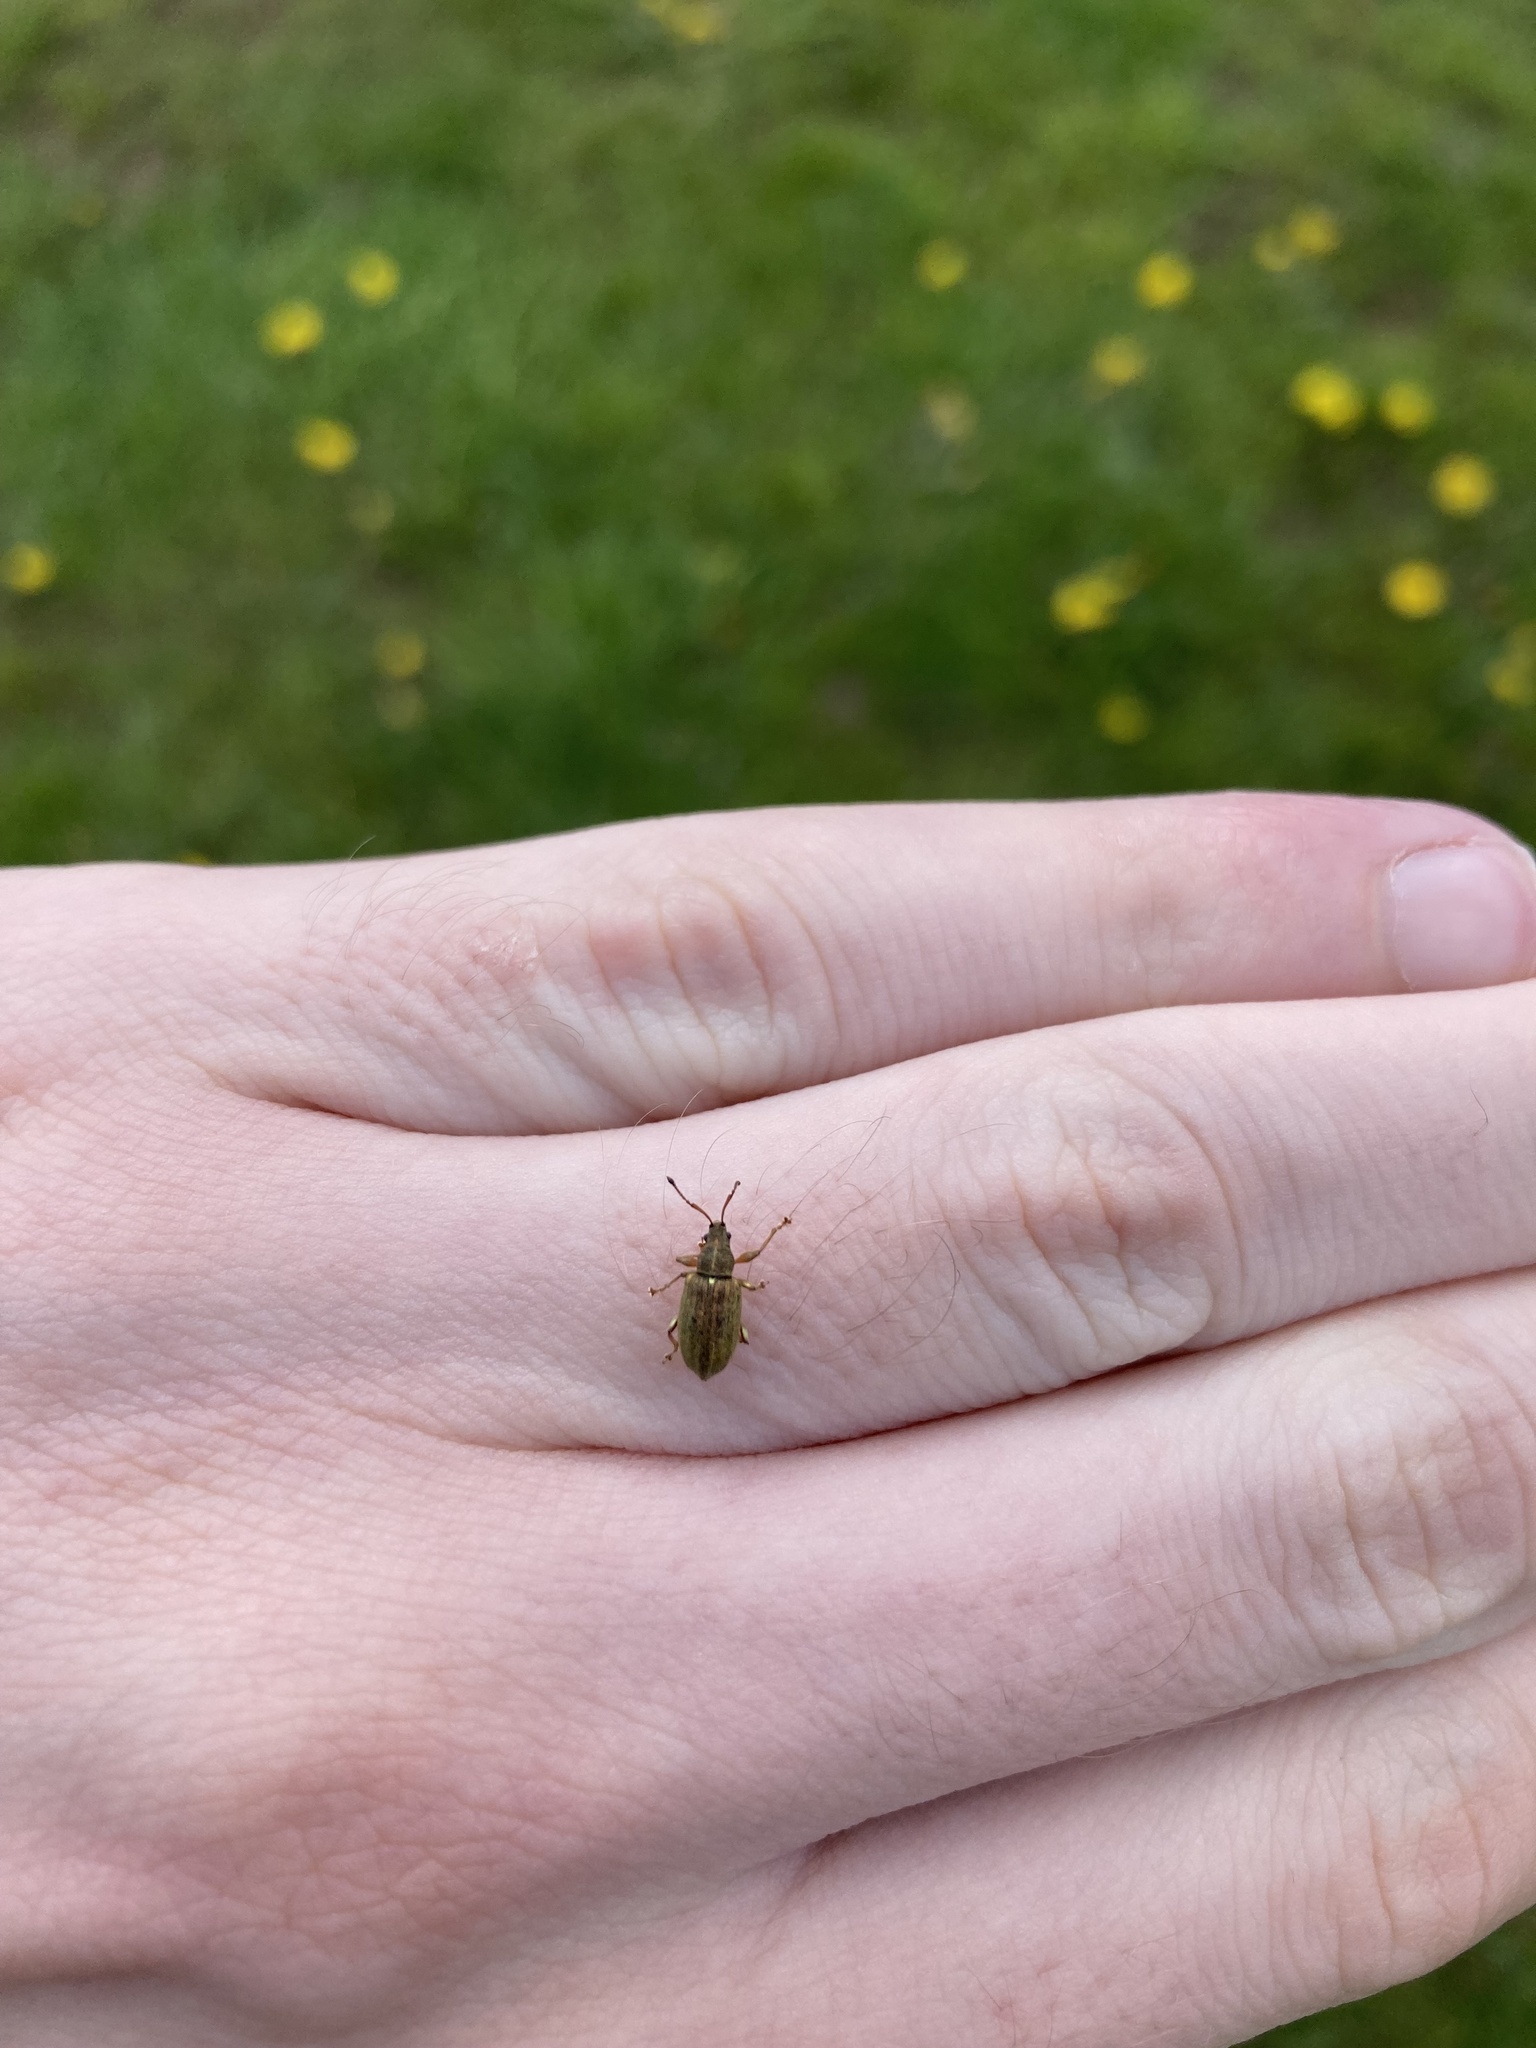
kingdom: Animalia
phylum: Arthropoda
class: Insecta
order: Coleoptera
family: Curculionidae
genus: Phyllobius
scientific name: Phyllobius pyri
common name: Common leaf weevil
